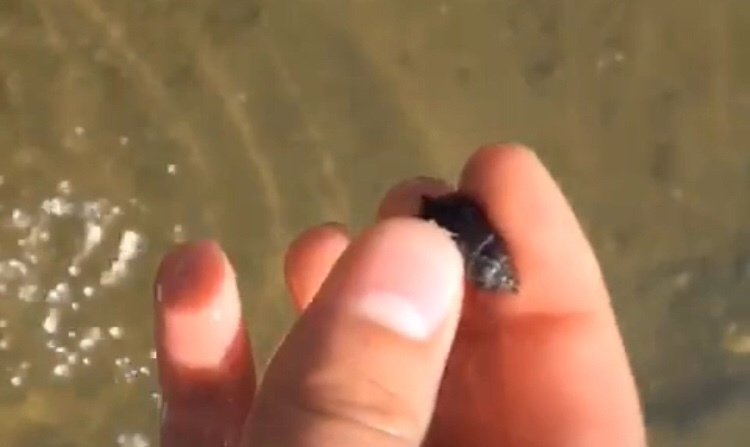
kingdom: Animalia
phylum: Mollusca
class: Gastropoda
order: Neogastropoda
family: Nassariidae
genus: Ilyanassa
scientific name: Ilyanassa obsoleta
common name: Eastern mudsnail
